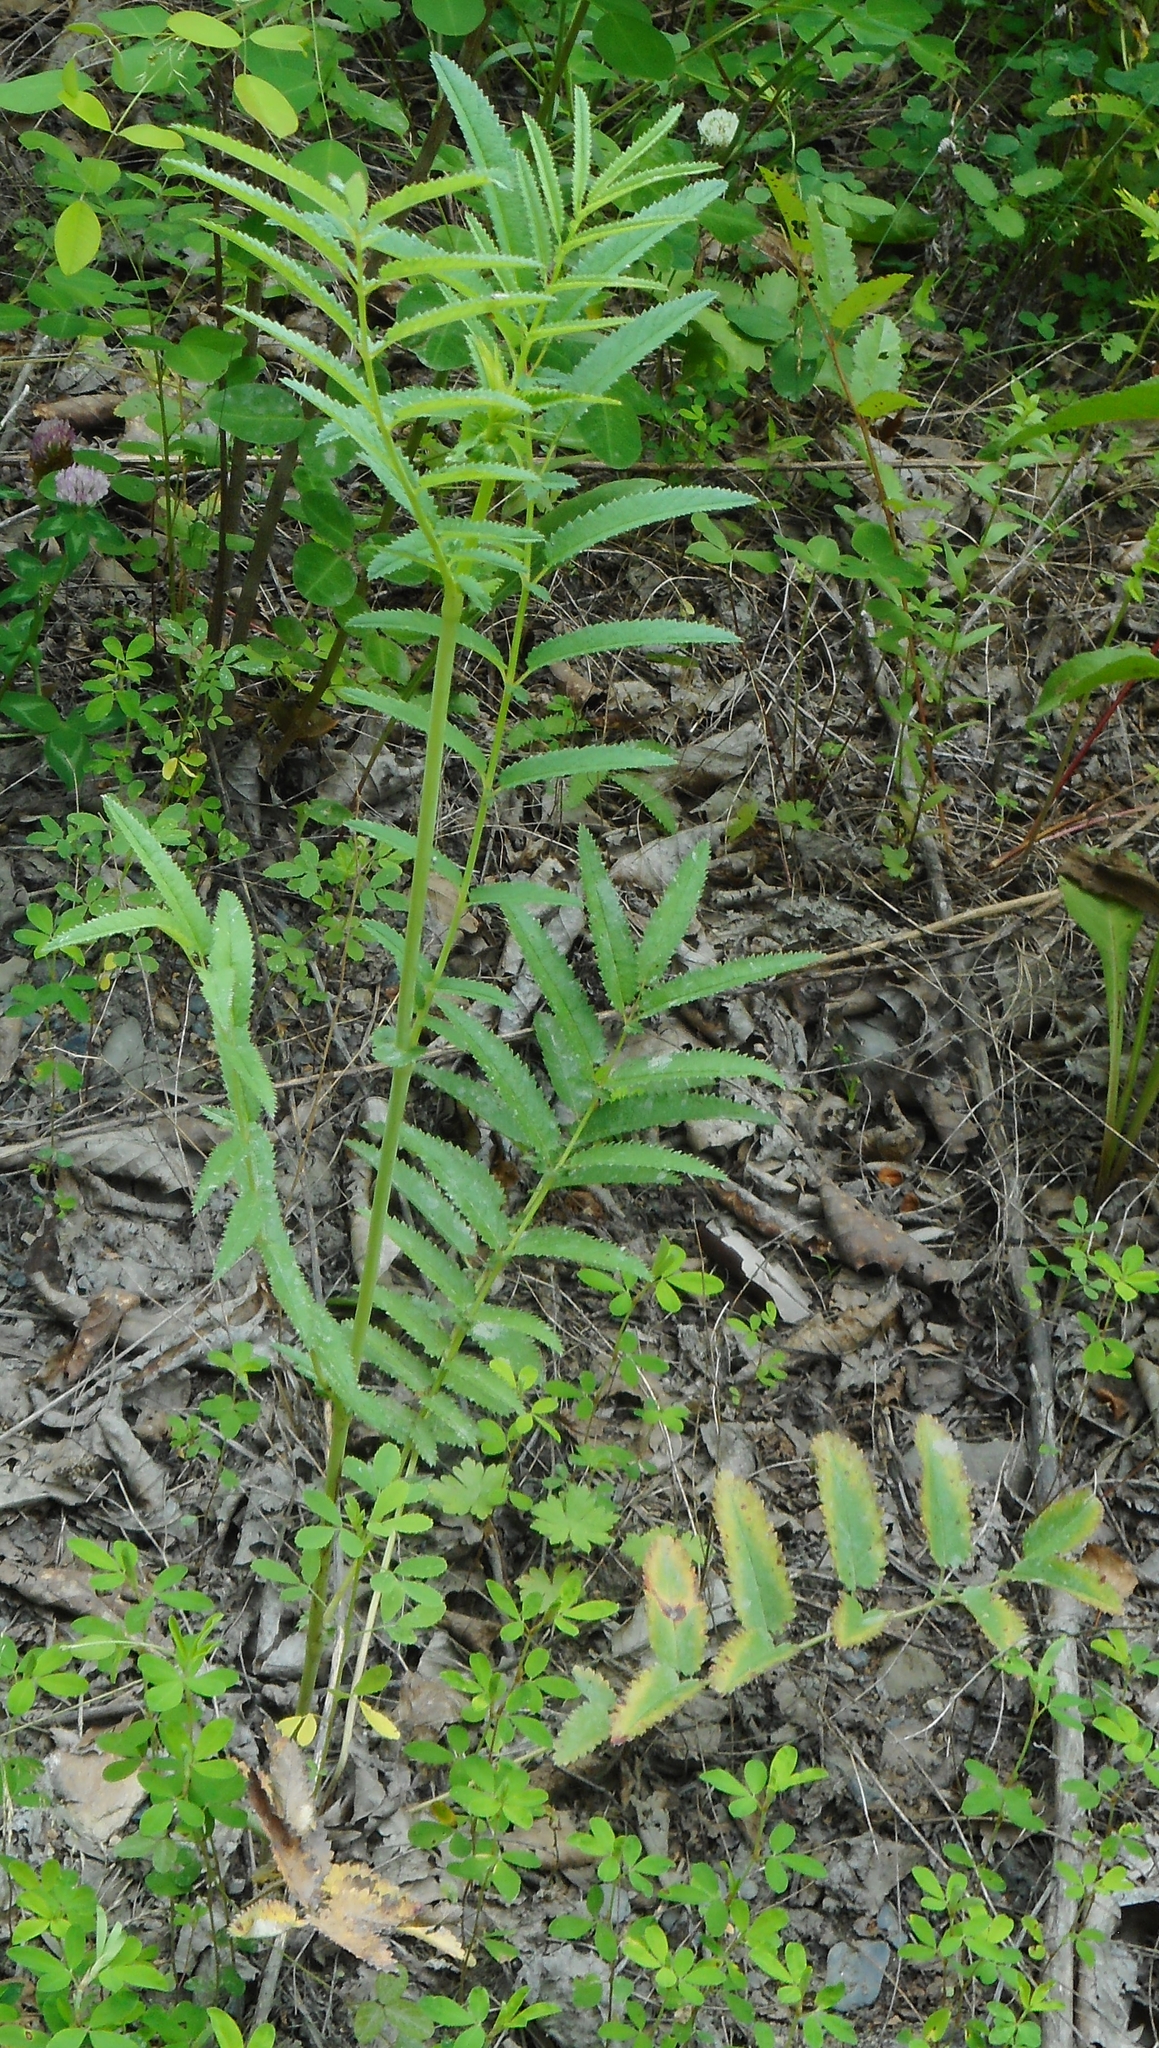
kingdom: Plantae
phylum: Tracheophyta
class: Magnoliopsida
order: Rosales
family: Rosaceae
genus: Poterium
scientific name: Poterium tenuifolium
